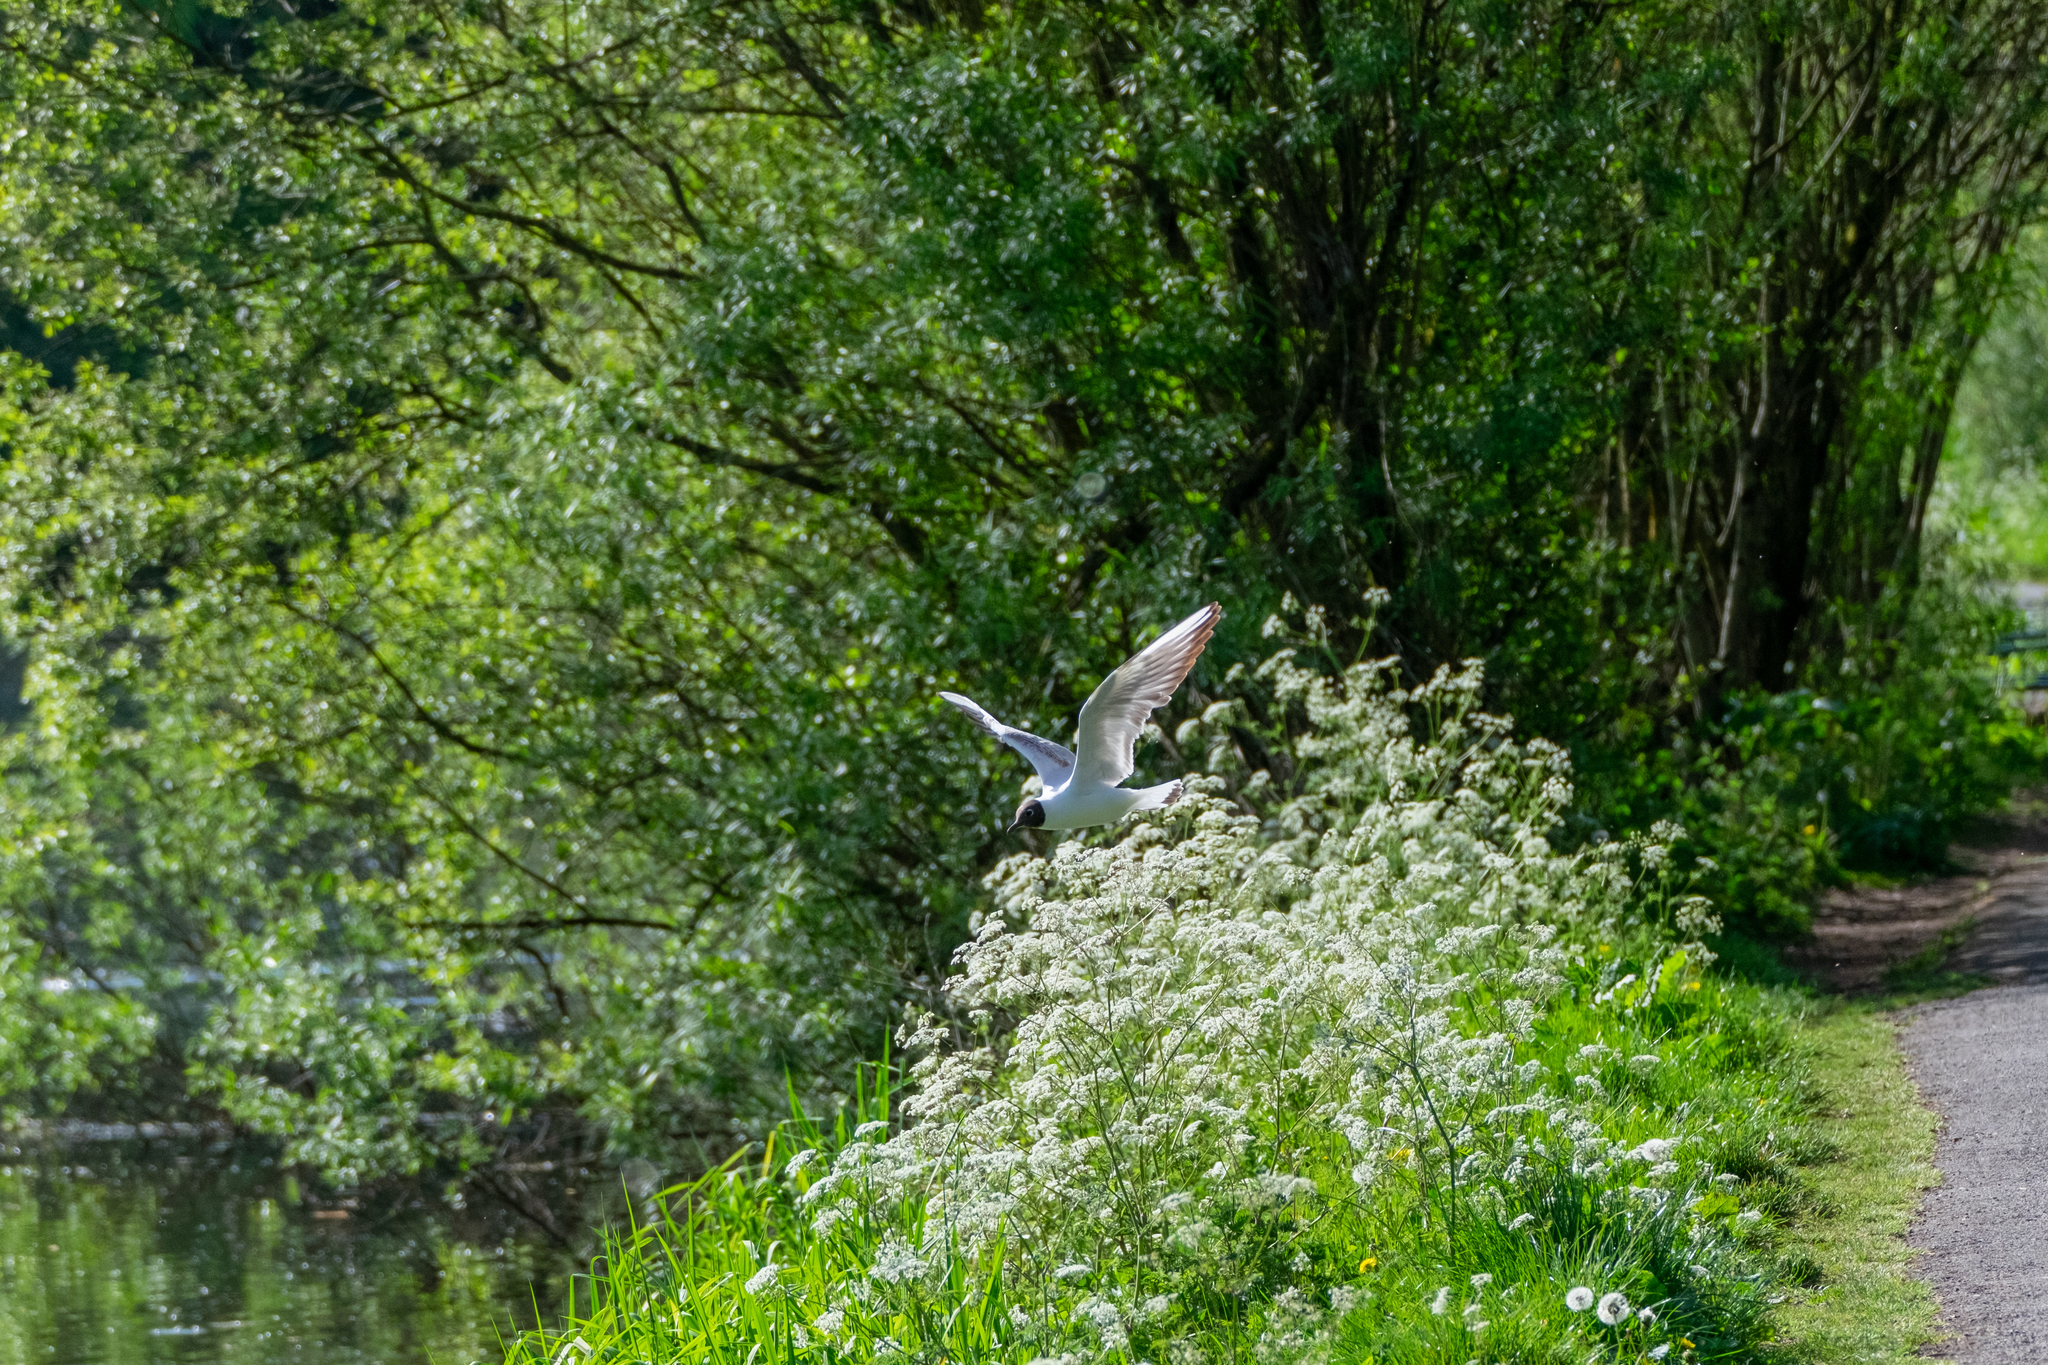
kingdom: Animalia
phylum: Chordata
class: Aves
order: Charadriiformes
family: Laridae
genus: Chroicocephalus
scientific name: Chroicocephalus ridibundus
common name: Black-headed gull
